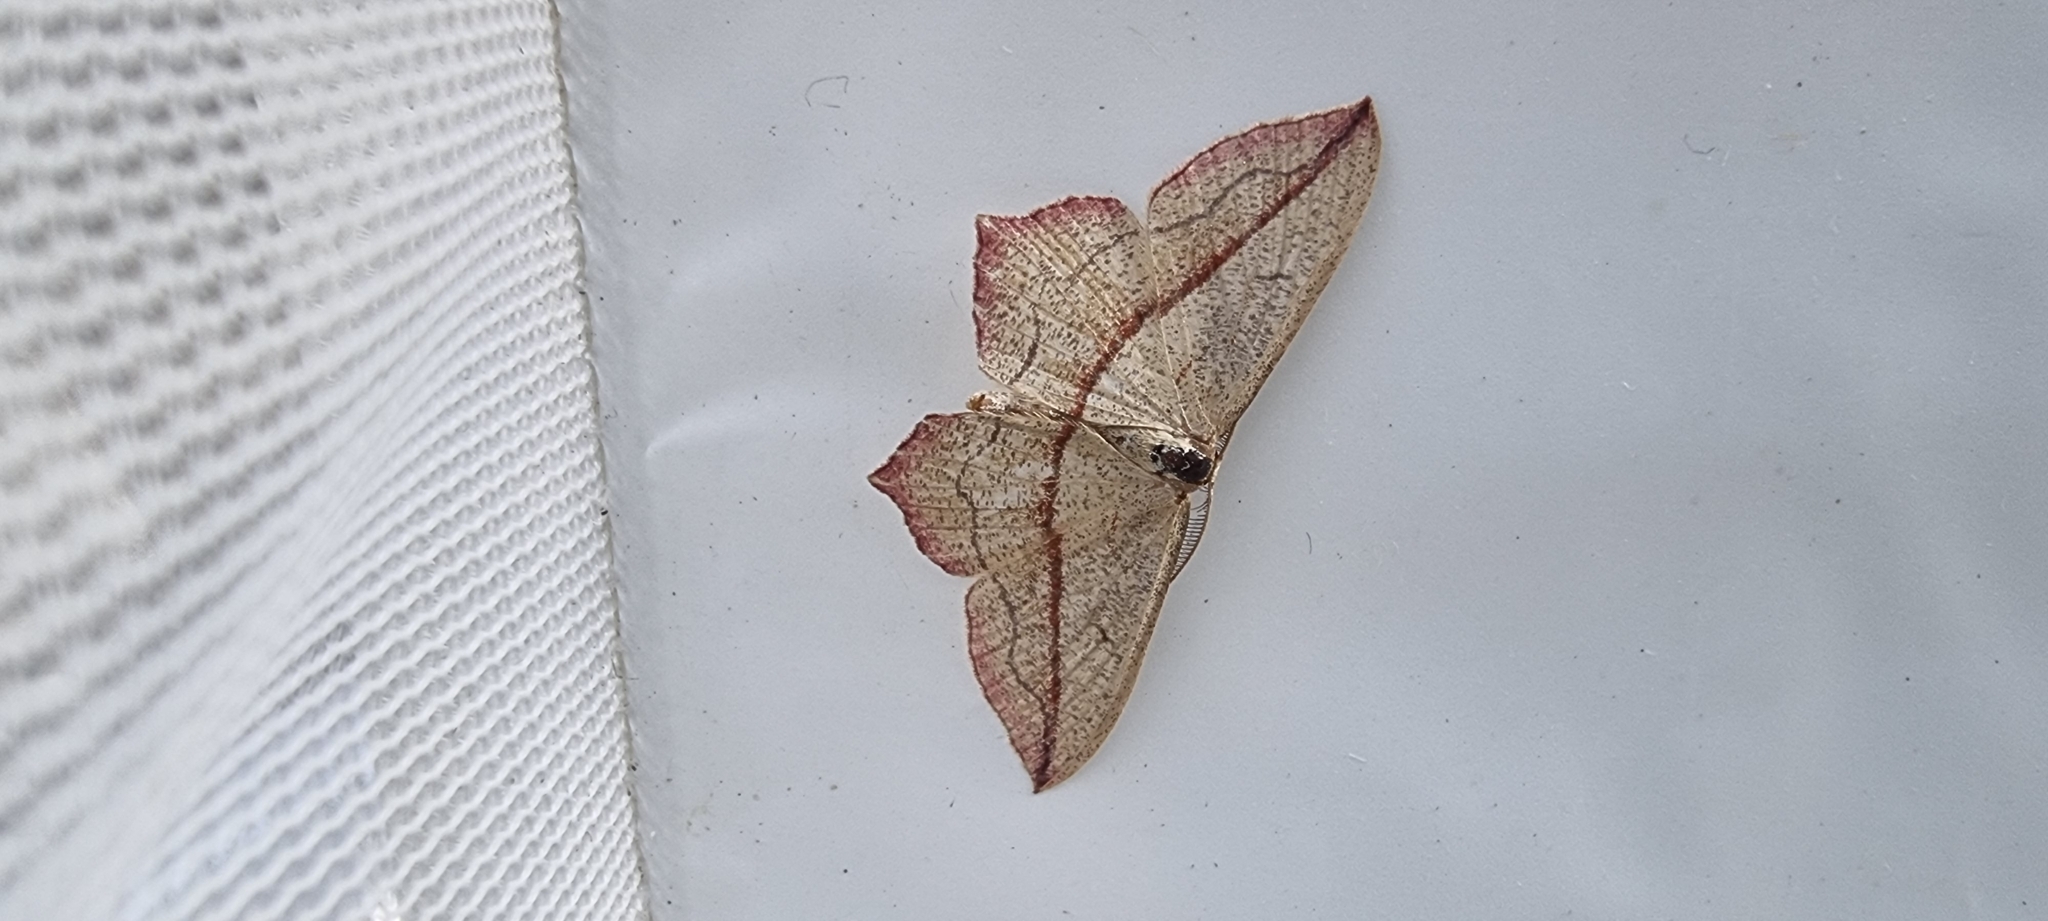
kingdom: Animalia
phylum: Arthropoda
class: Insecta
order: Lepidoptera
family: Geometridae
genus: Timandra
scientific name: Timandra comae
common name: Blood-vein
